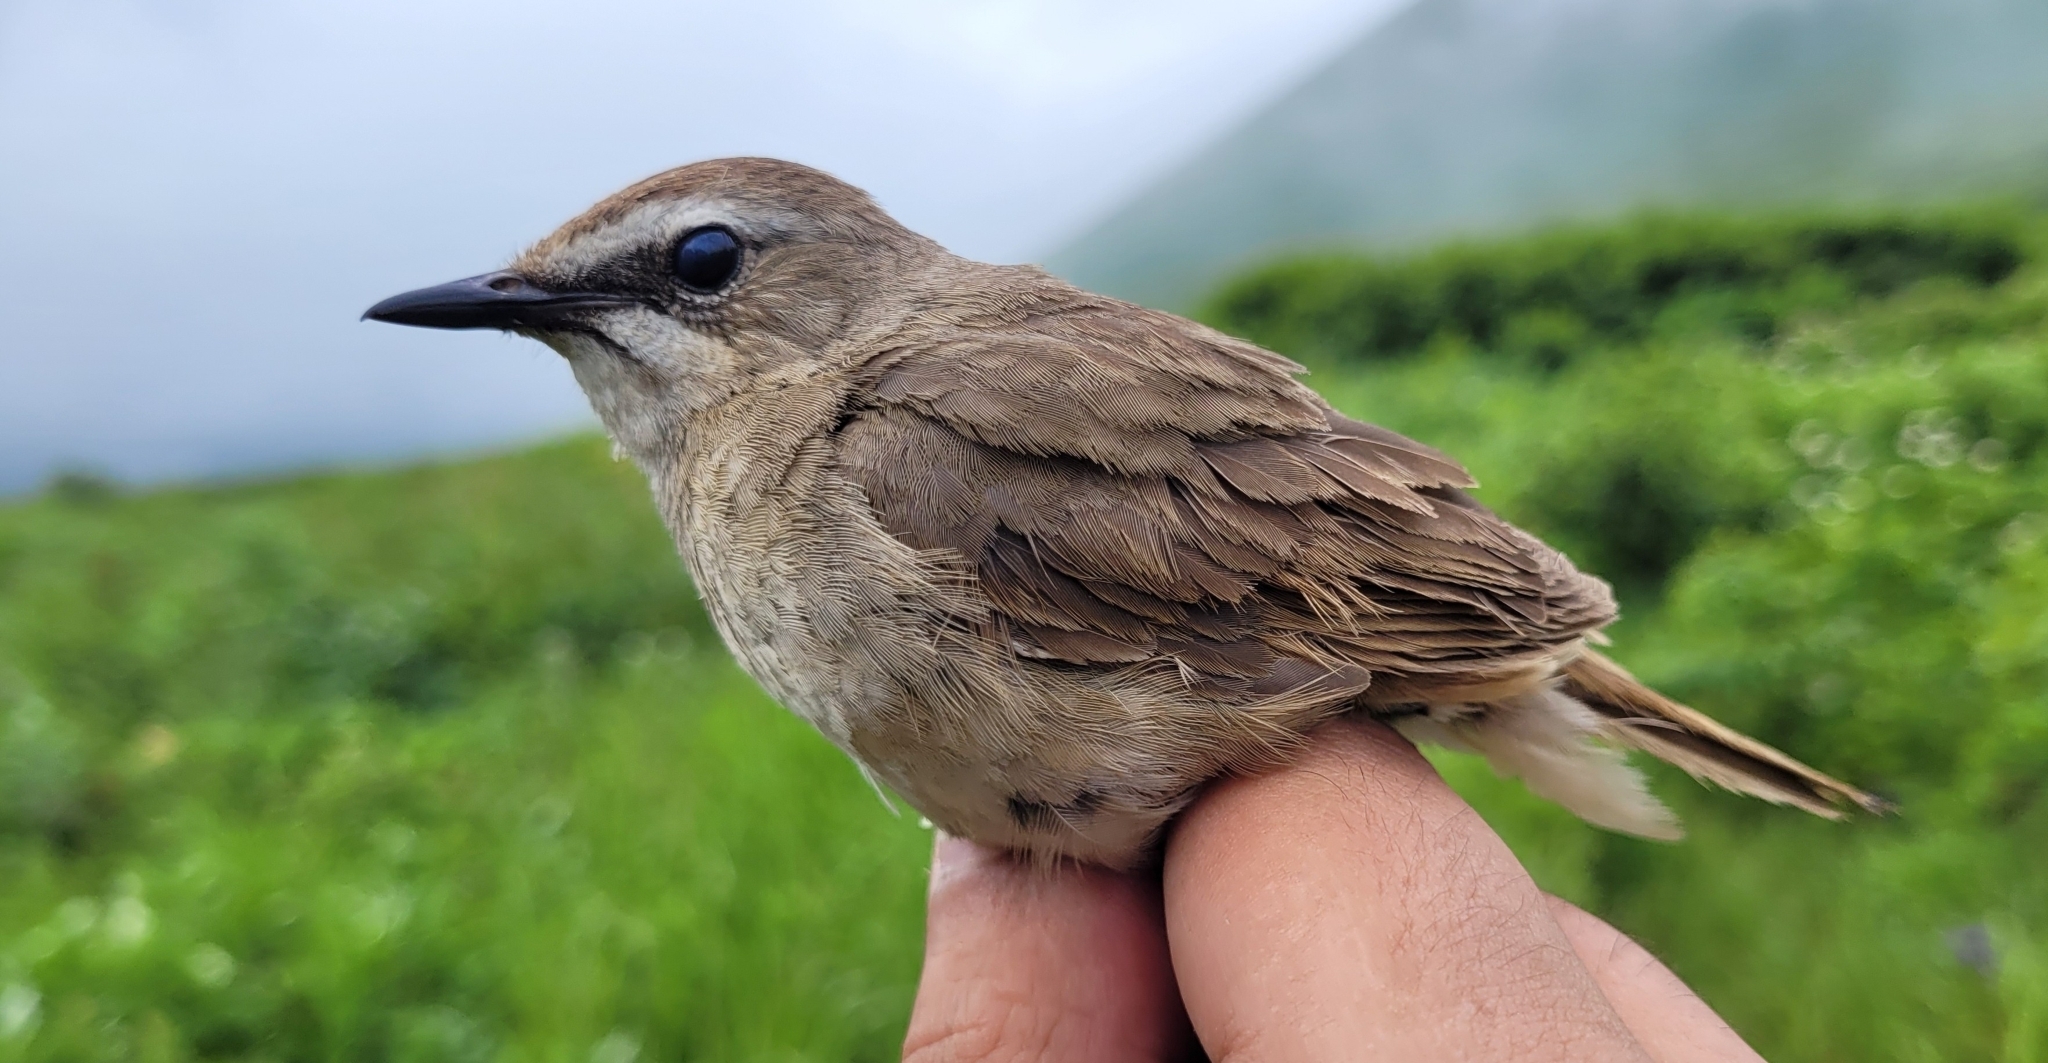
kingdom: Animalia
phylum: Chordata
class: Aves
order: Passeriformes
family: Muscicapidae
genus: Luscinia
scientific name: Luscinia calliope
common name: Siberian rubythroat
